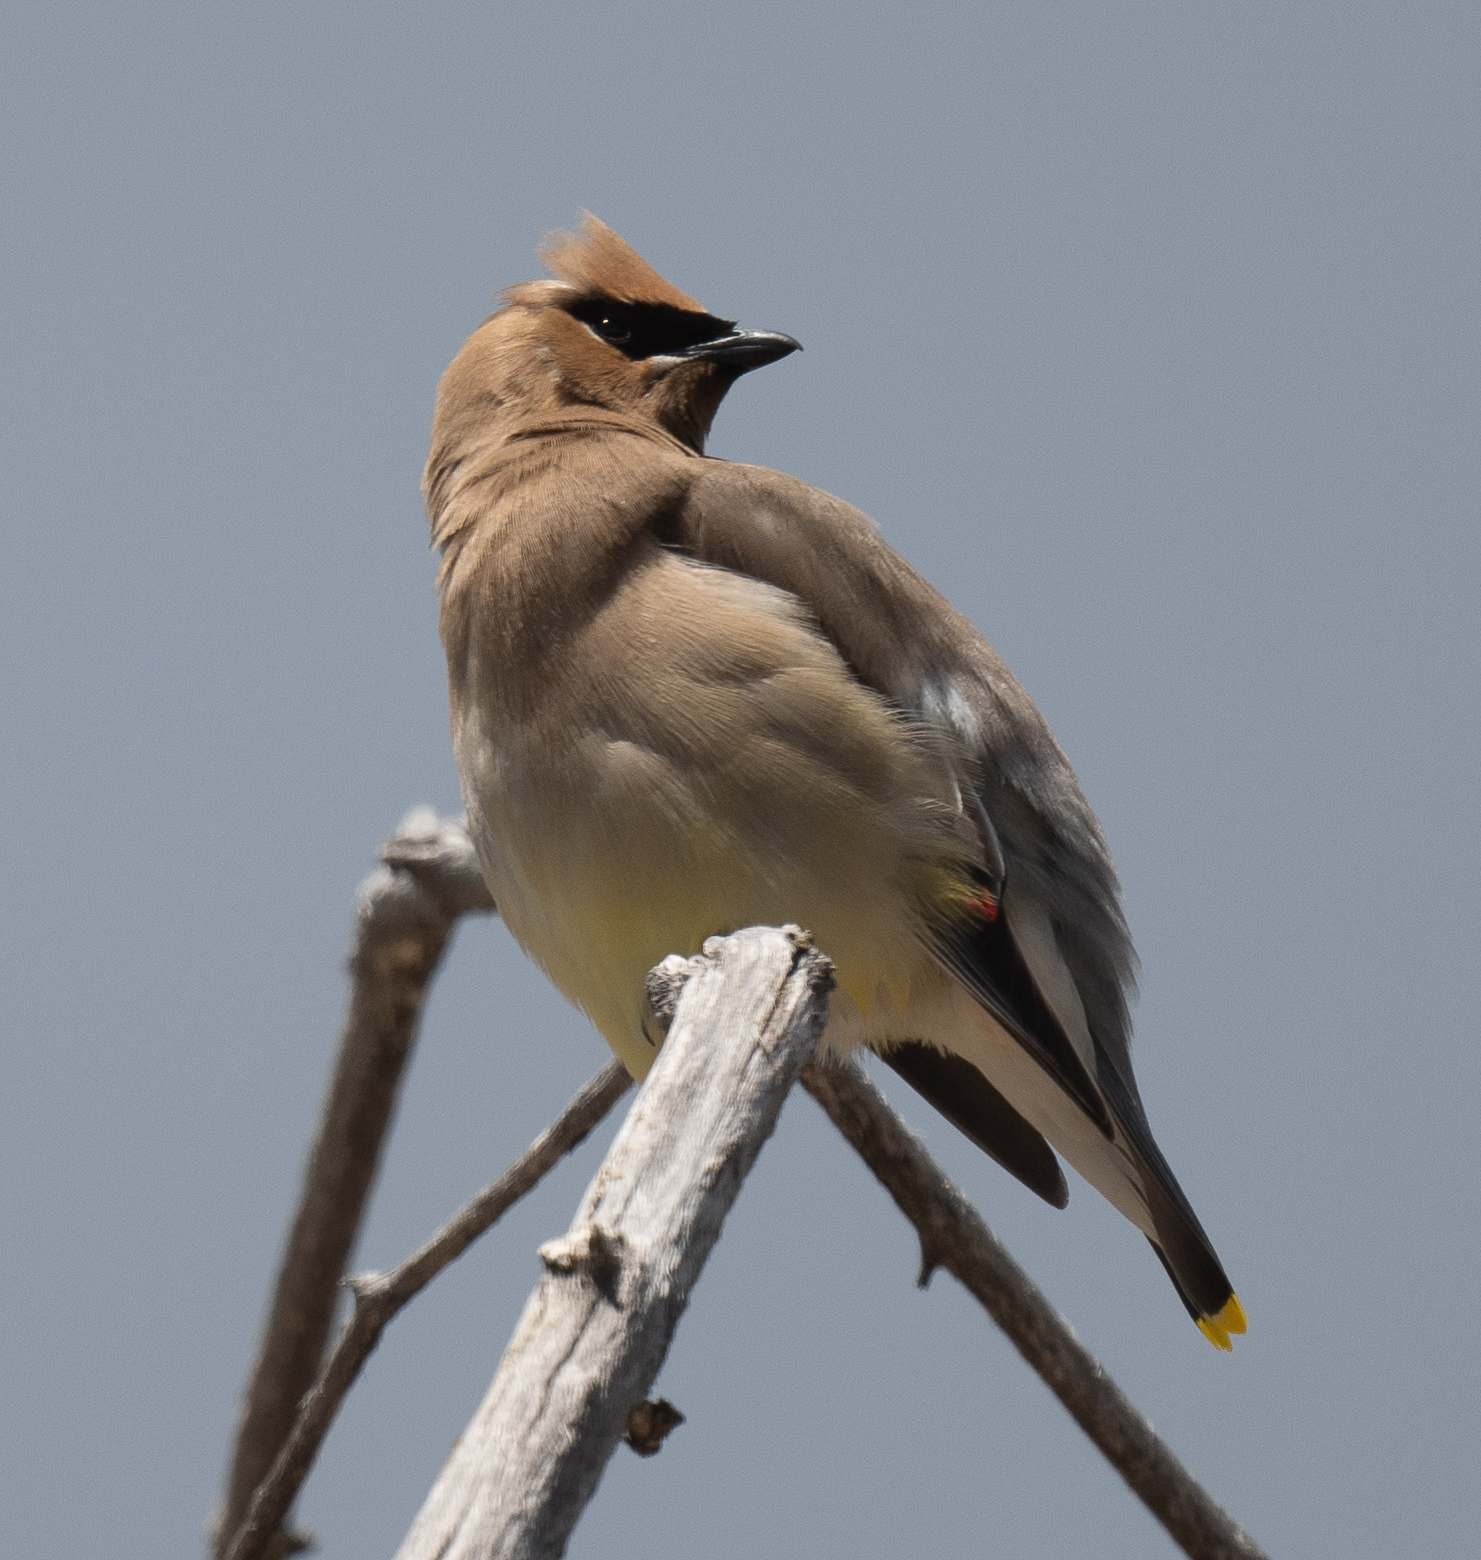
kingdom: Animalia
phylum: Chordata
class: Aves
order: Passeriformes
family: Bombycillidae
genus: Bombycilla
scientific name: Bombycilla cedrorum
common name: Cedar waxwing
